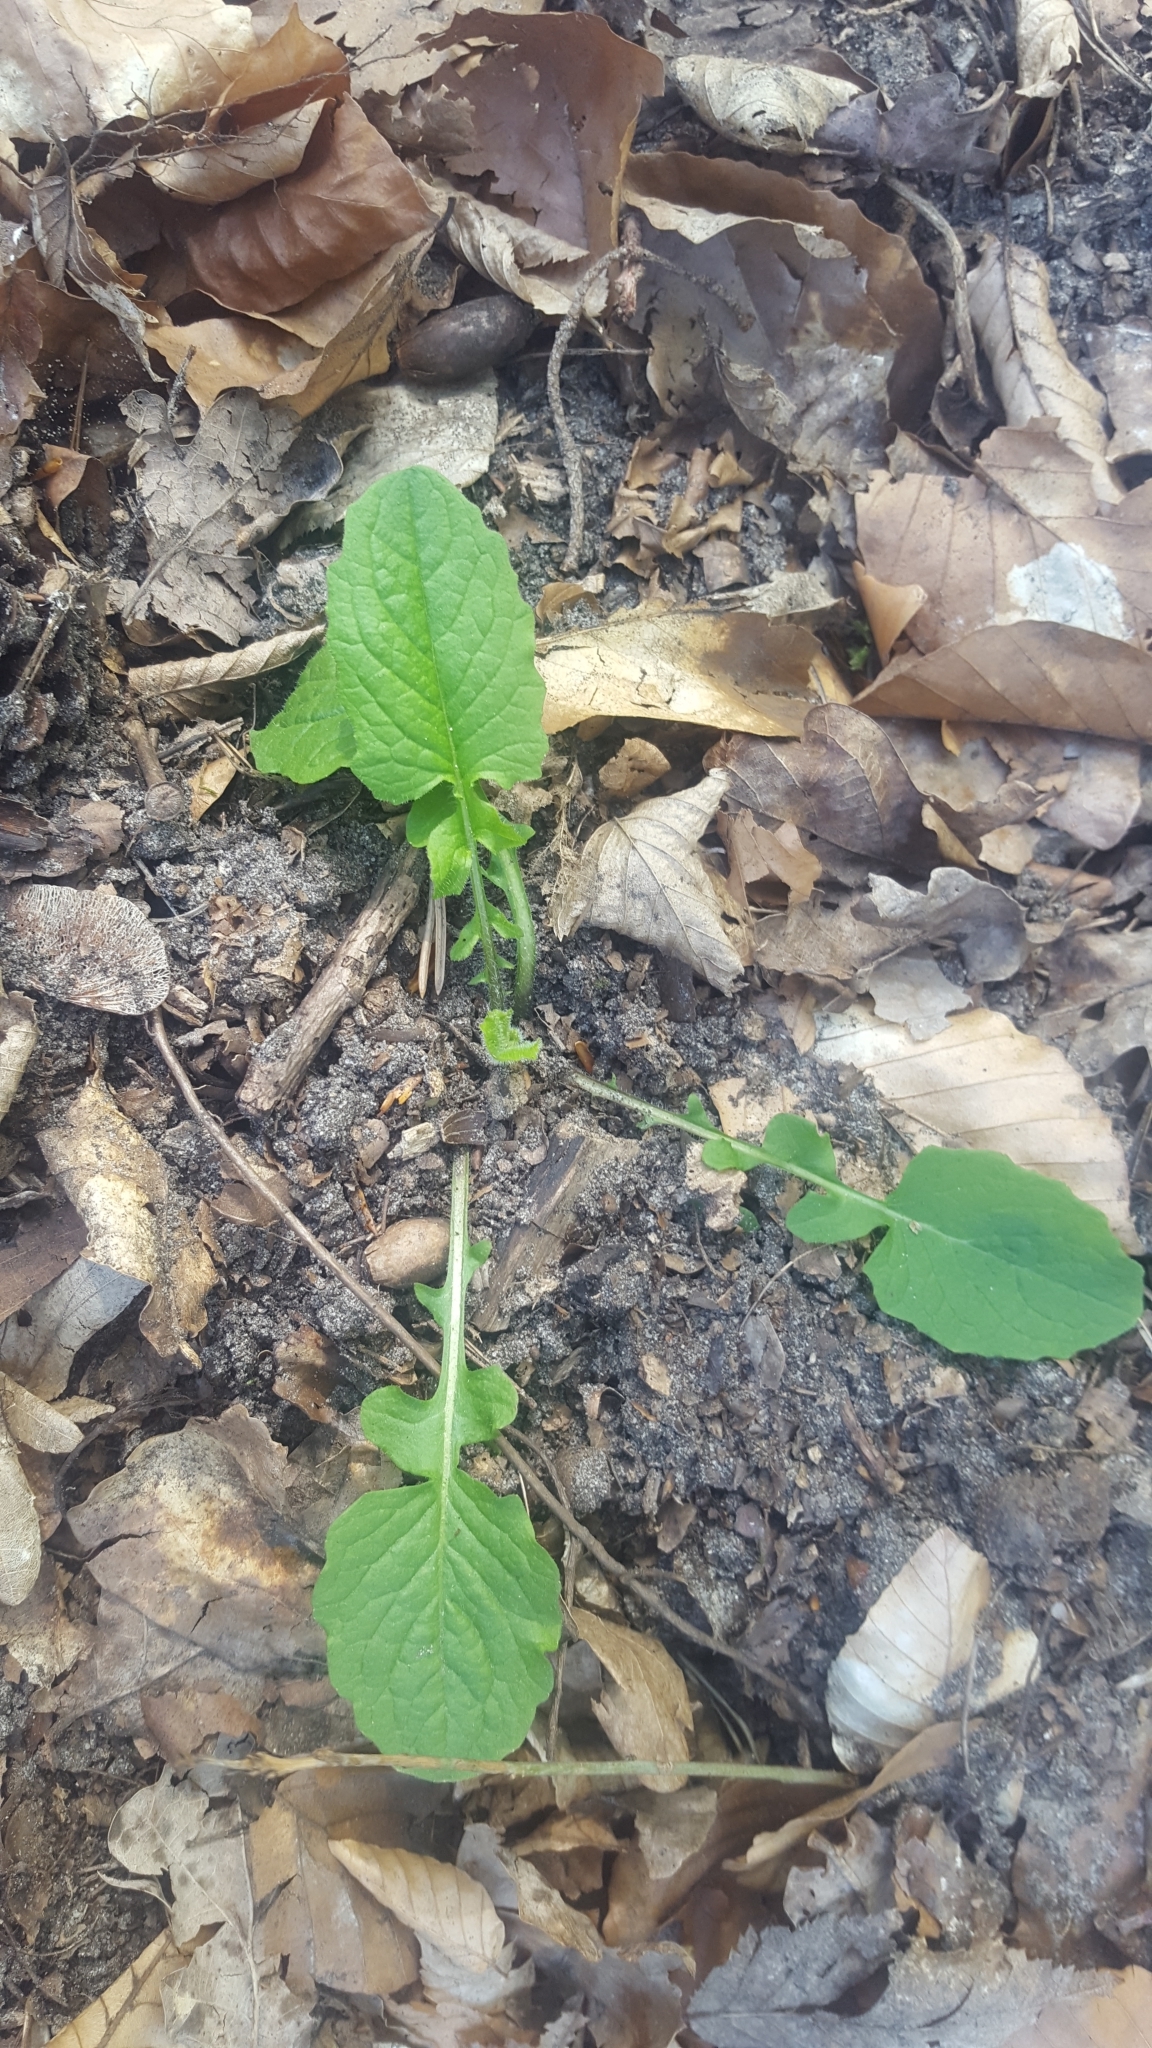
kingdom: Plantae
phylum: Tracheophyta
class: Magnoliopsida
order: Asterales
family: Asteraceae
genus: Lapsana
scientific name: Lapsana communis
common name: Nipplewort
